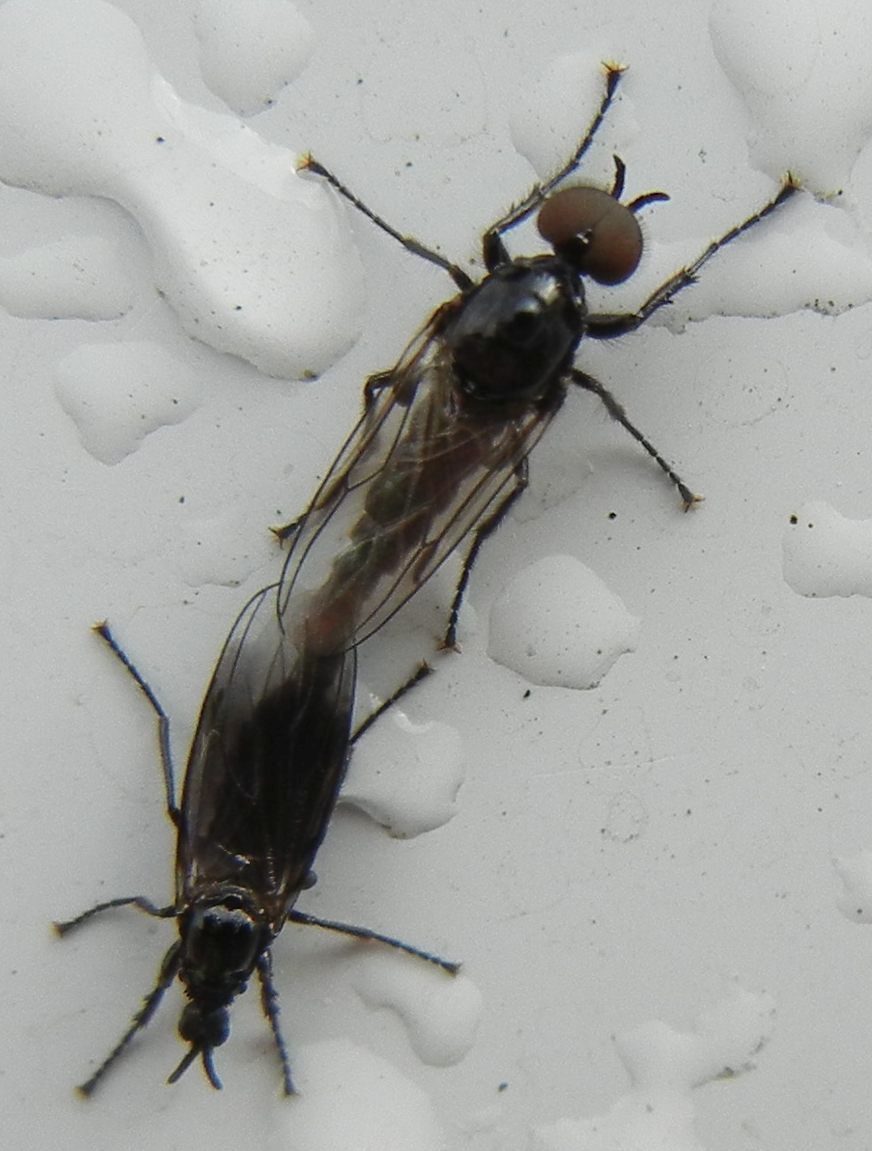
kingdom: Animalia
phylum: Arthropoda
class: Insecta
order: Diptera
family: Bibionidae
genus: Dilophus
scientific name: Dilophus febrilis
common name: Fever fly
